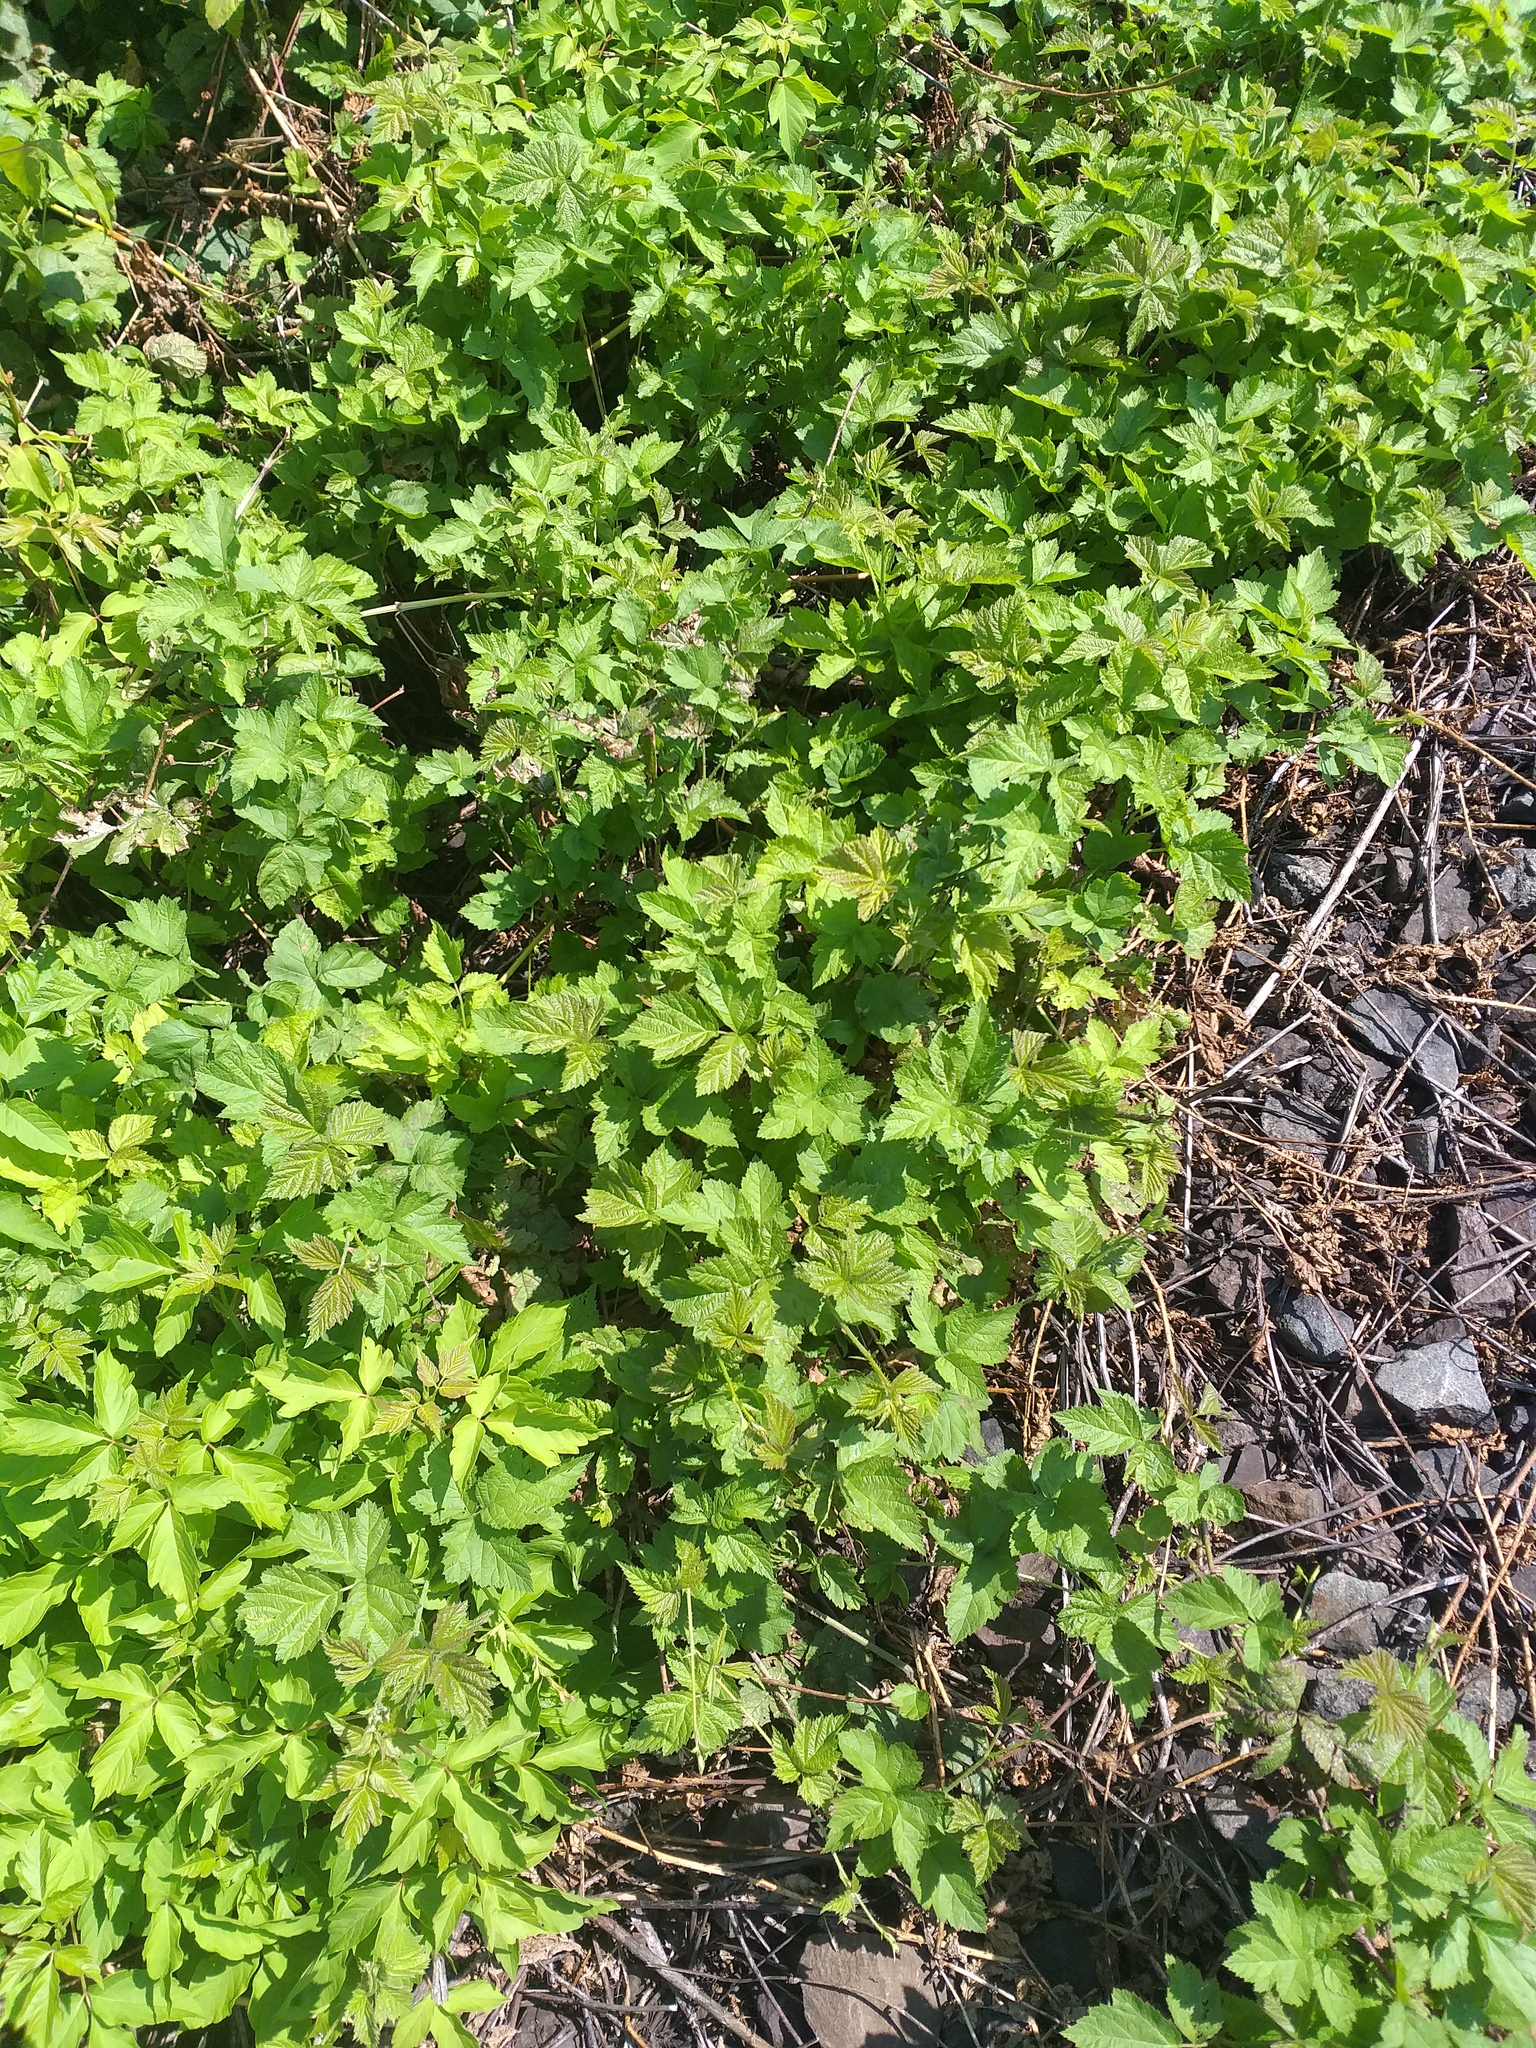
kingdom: Plantae
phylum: Tracheophyta
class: Magnoliopsida
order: Rosales
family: Rosaceae
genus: Rubus
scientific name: Rubus caesius
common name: Dewberry
